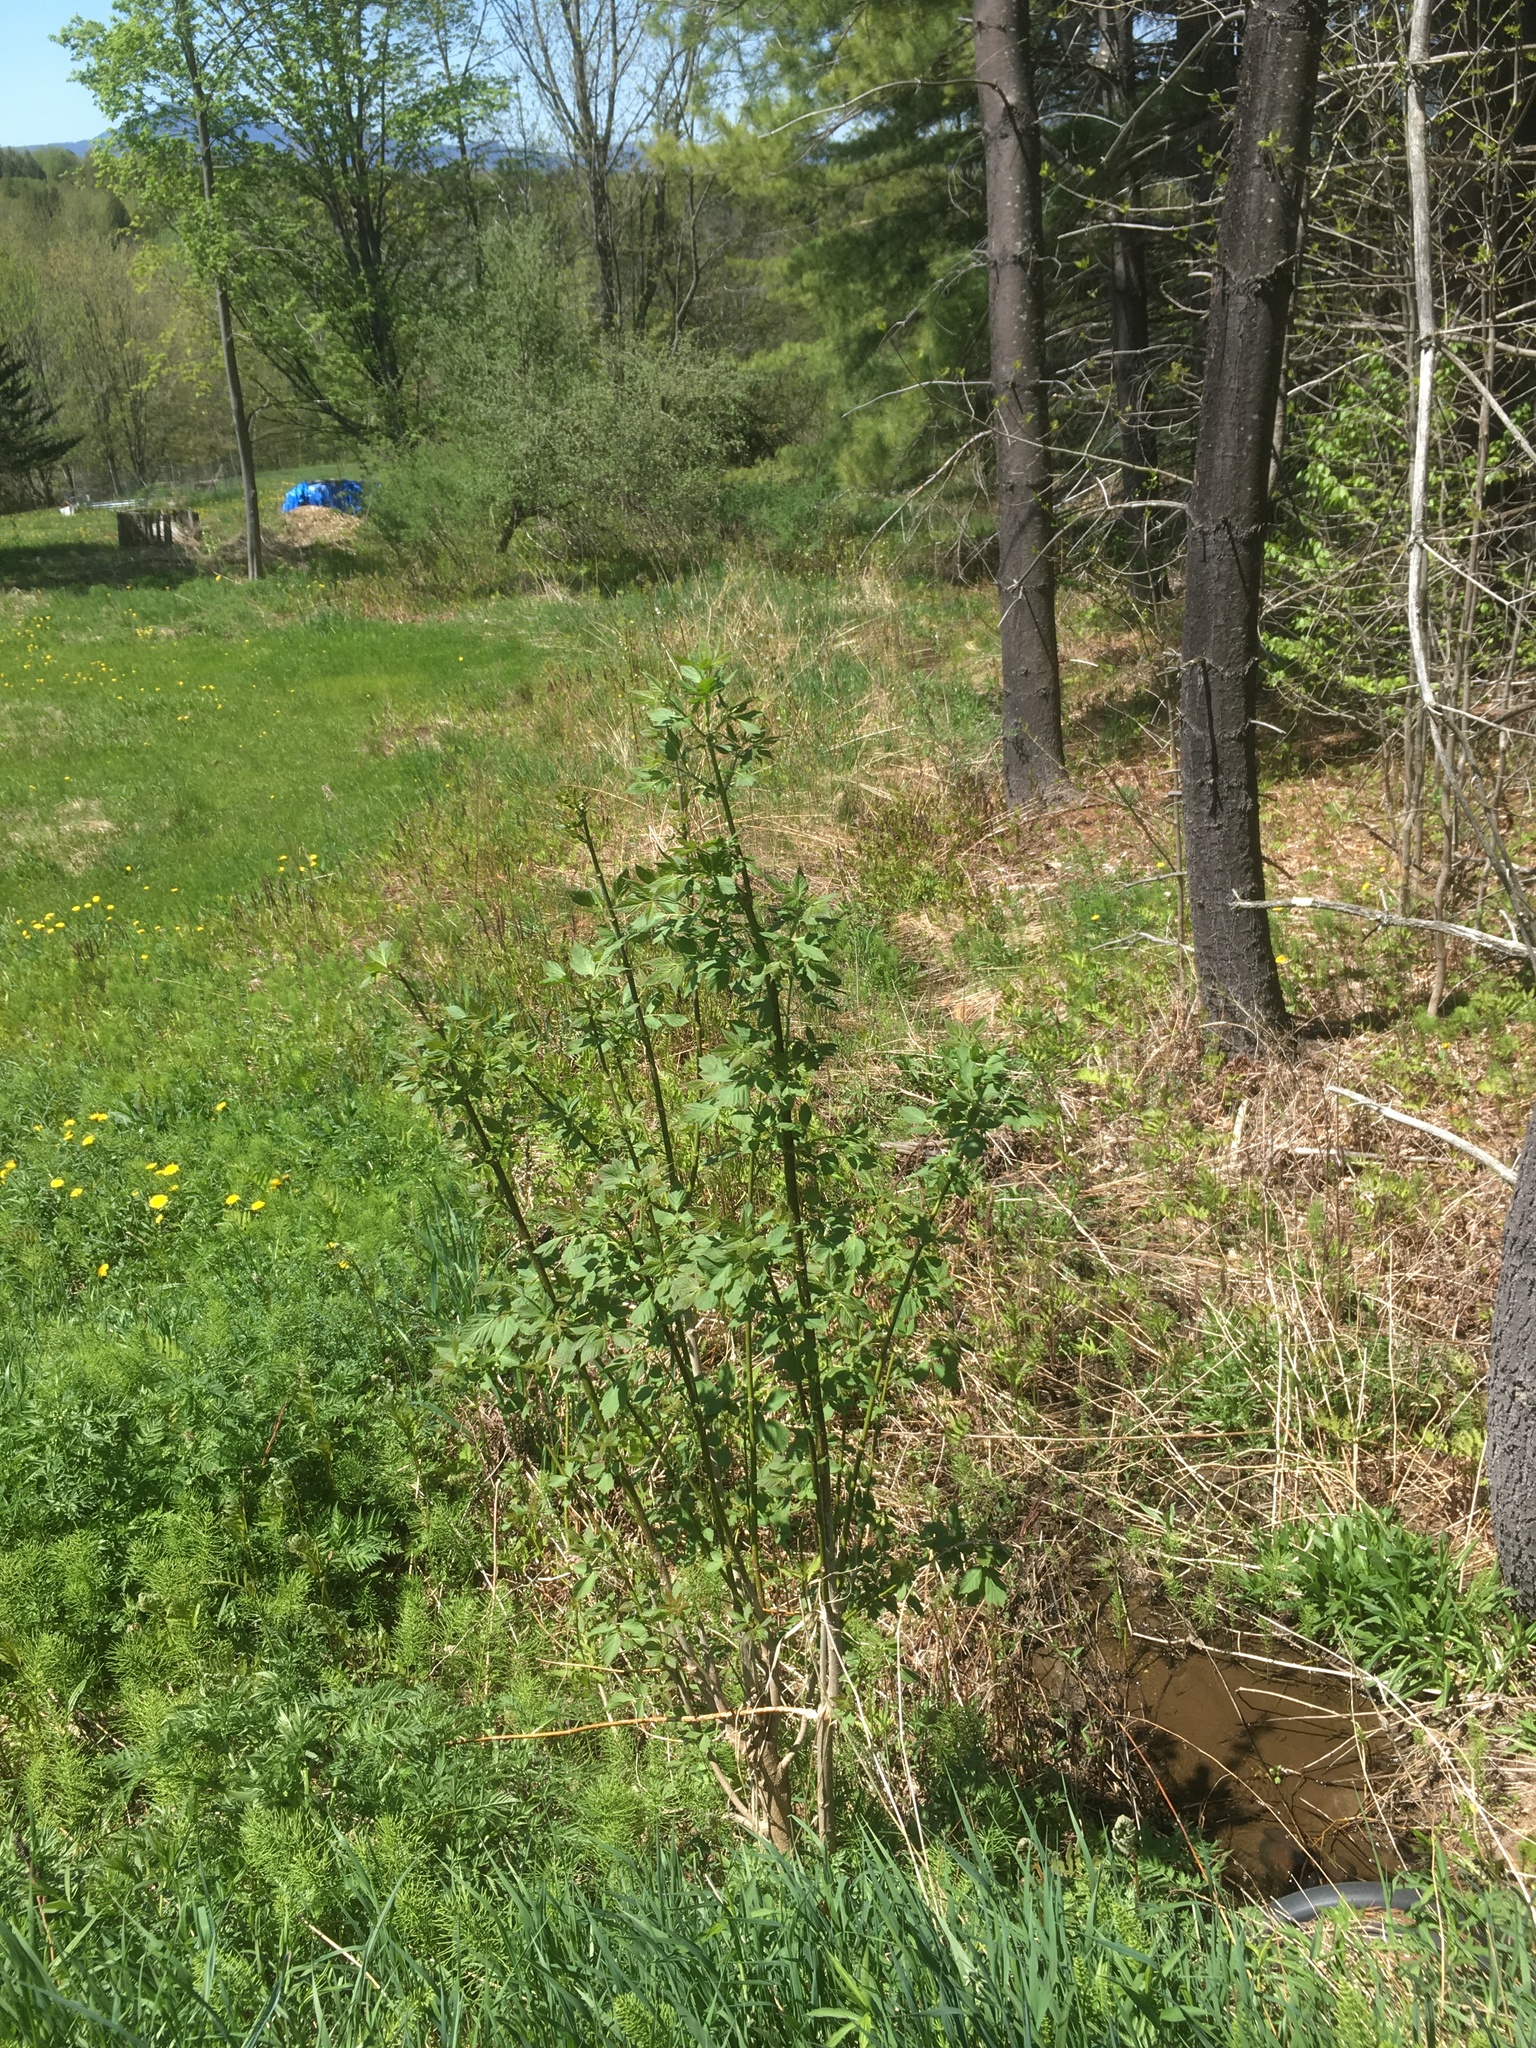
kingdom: Plantae
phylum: Tracheophyta
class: Magnoliopsida
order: Sapindales
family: Sapindaceae
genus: Acer
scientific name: Acer negundo
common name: Ashleaf maple
